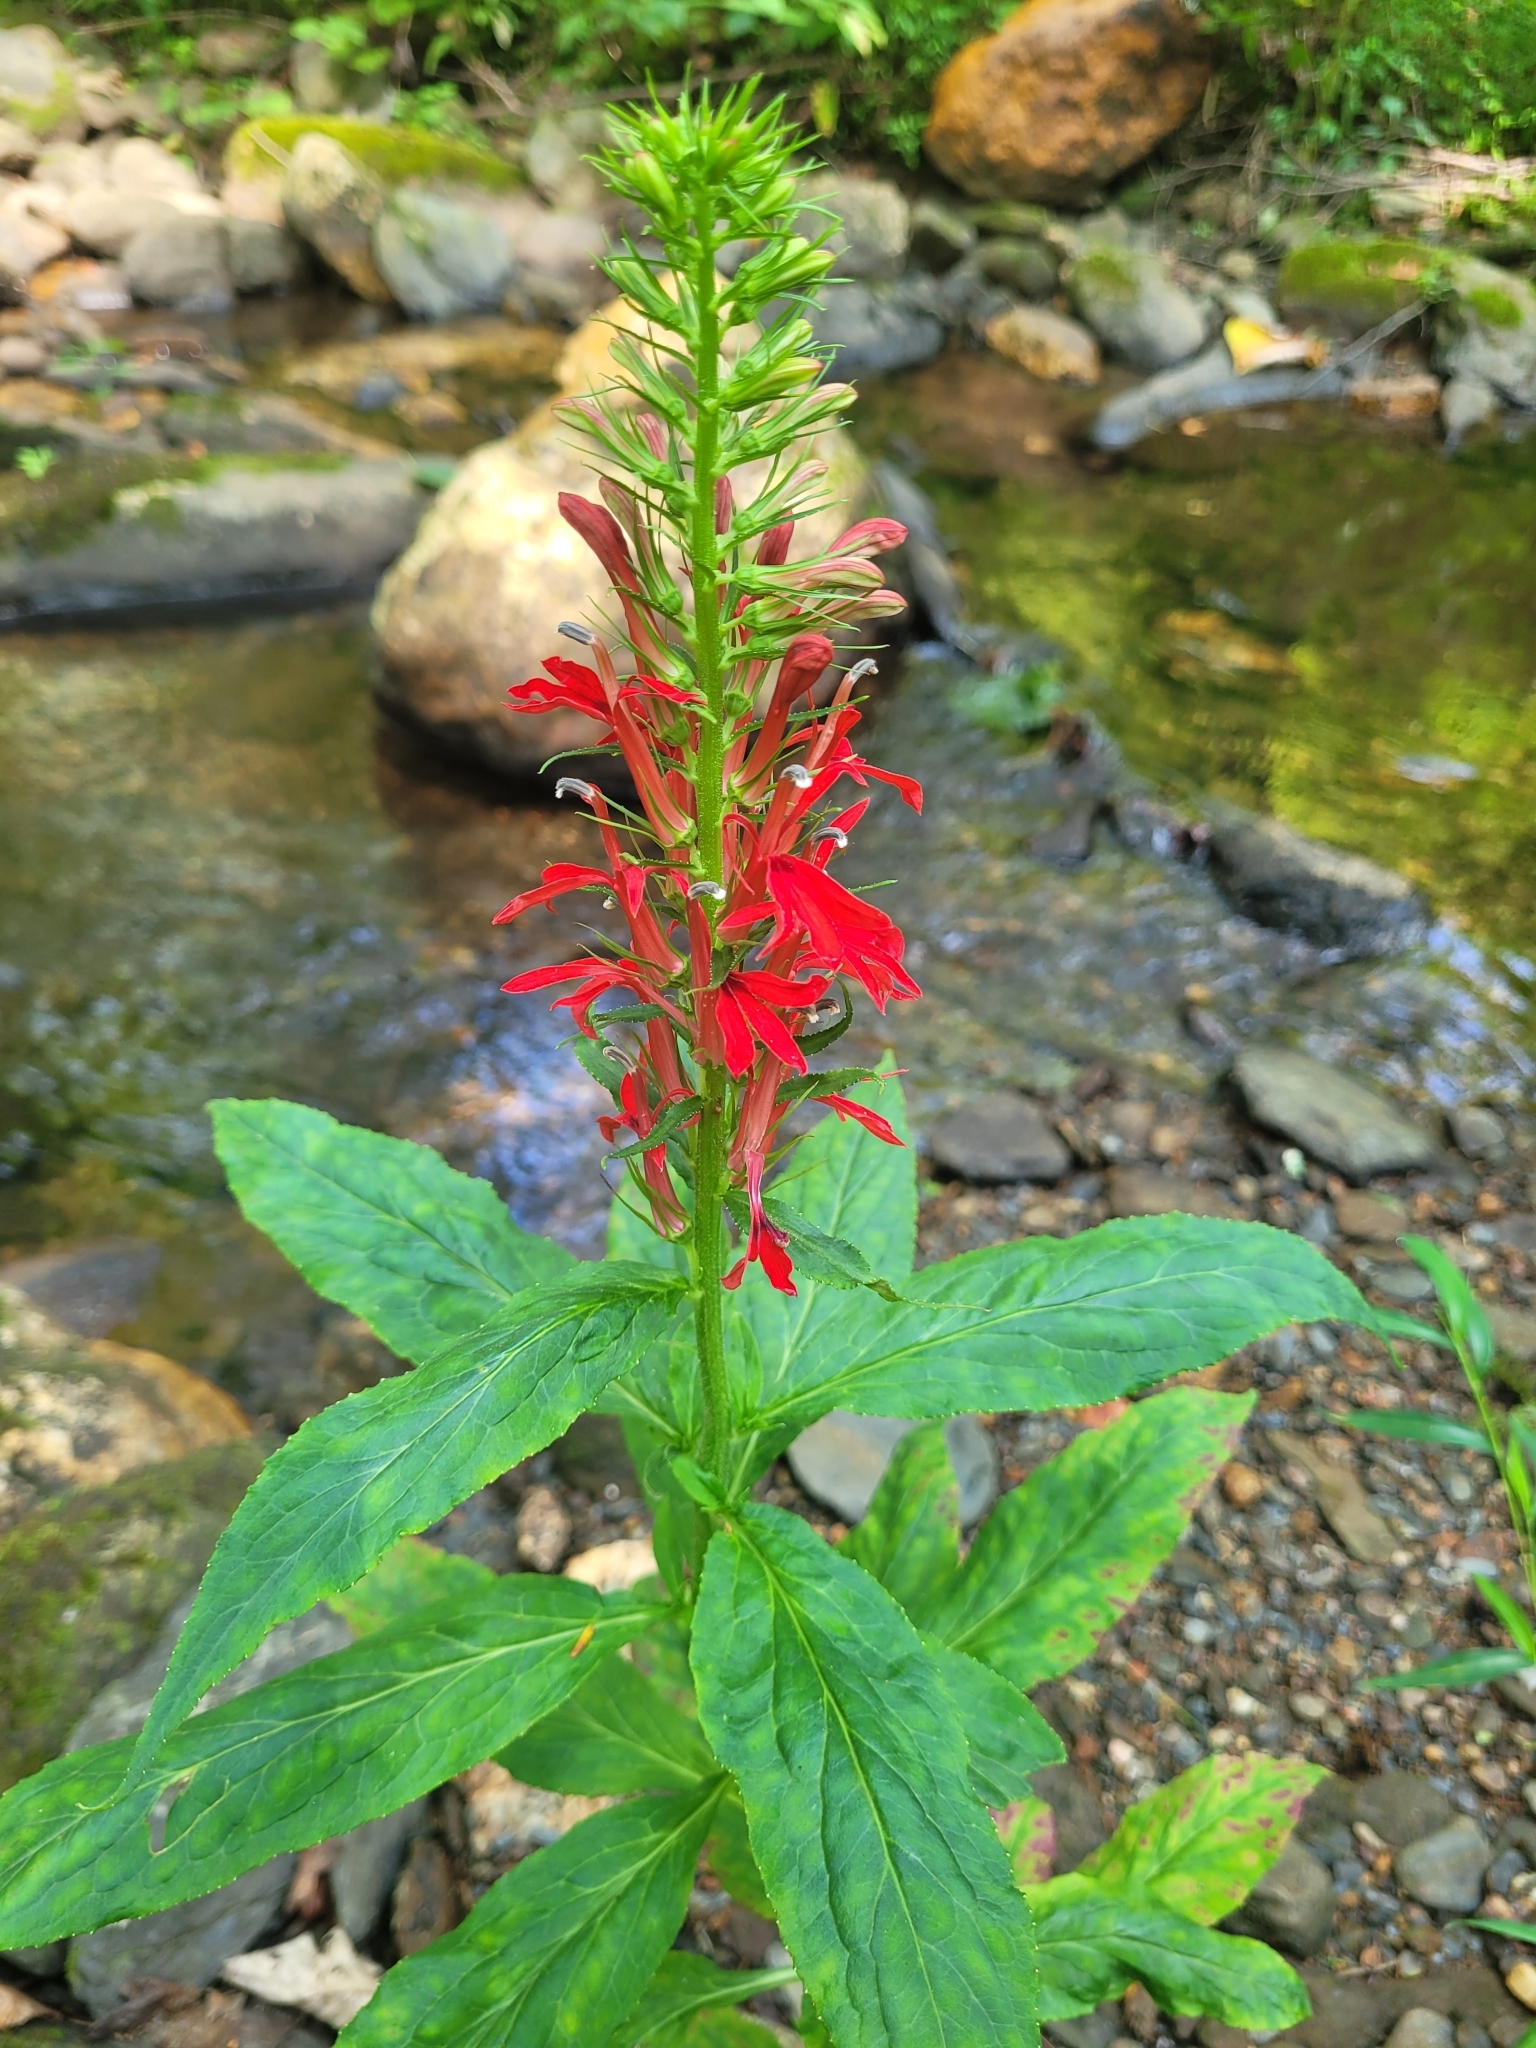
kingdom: Plantae
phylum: Tracheophyta
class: Magnoliopsida
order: Asterales
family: Campanulaceae
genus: Lobelia
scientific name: Lobelia cardinalis
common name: Cardinal flower
